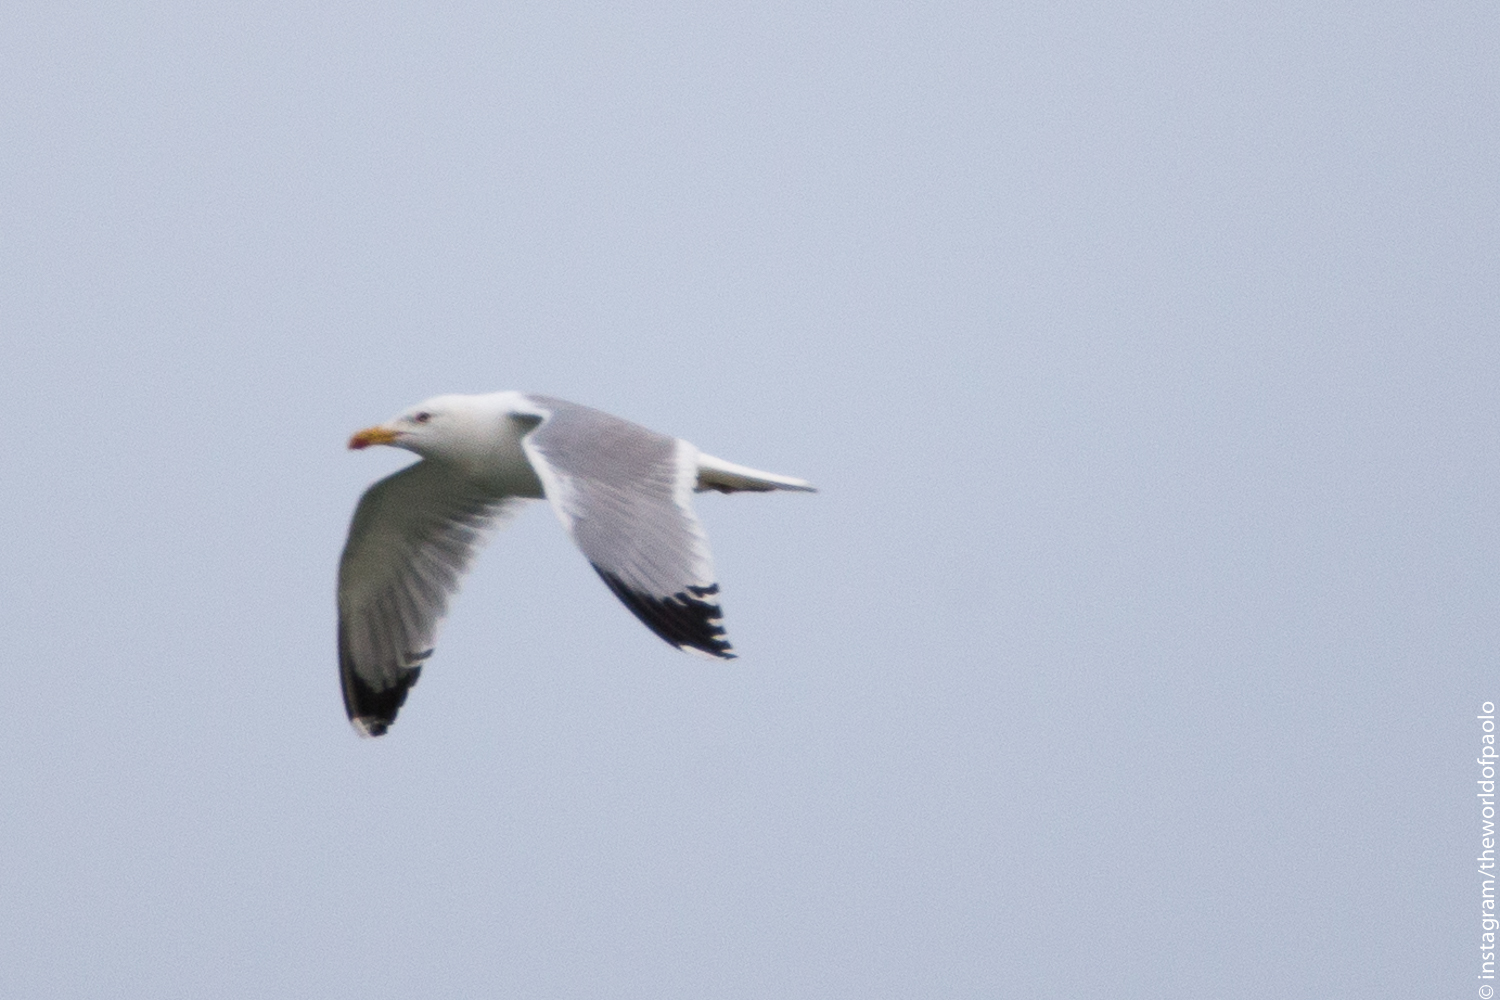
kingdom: Animalia
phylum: Chordata
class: Aves
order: Charadriiformes
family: Laridae
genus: Larus
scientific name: Larus michahellis
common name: Yellow-legged gull
